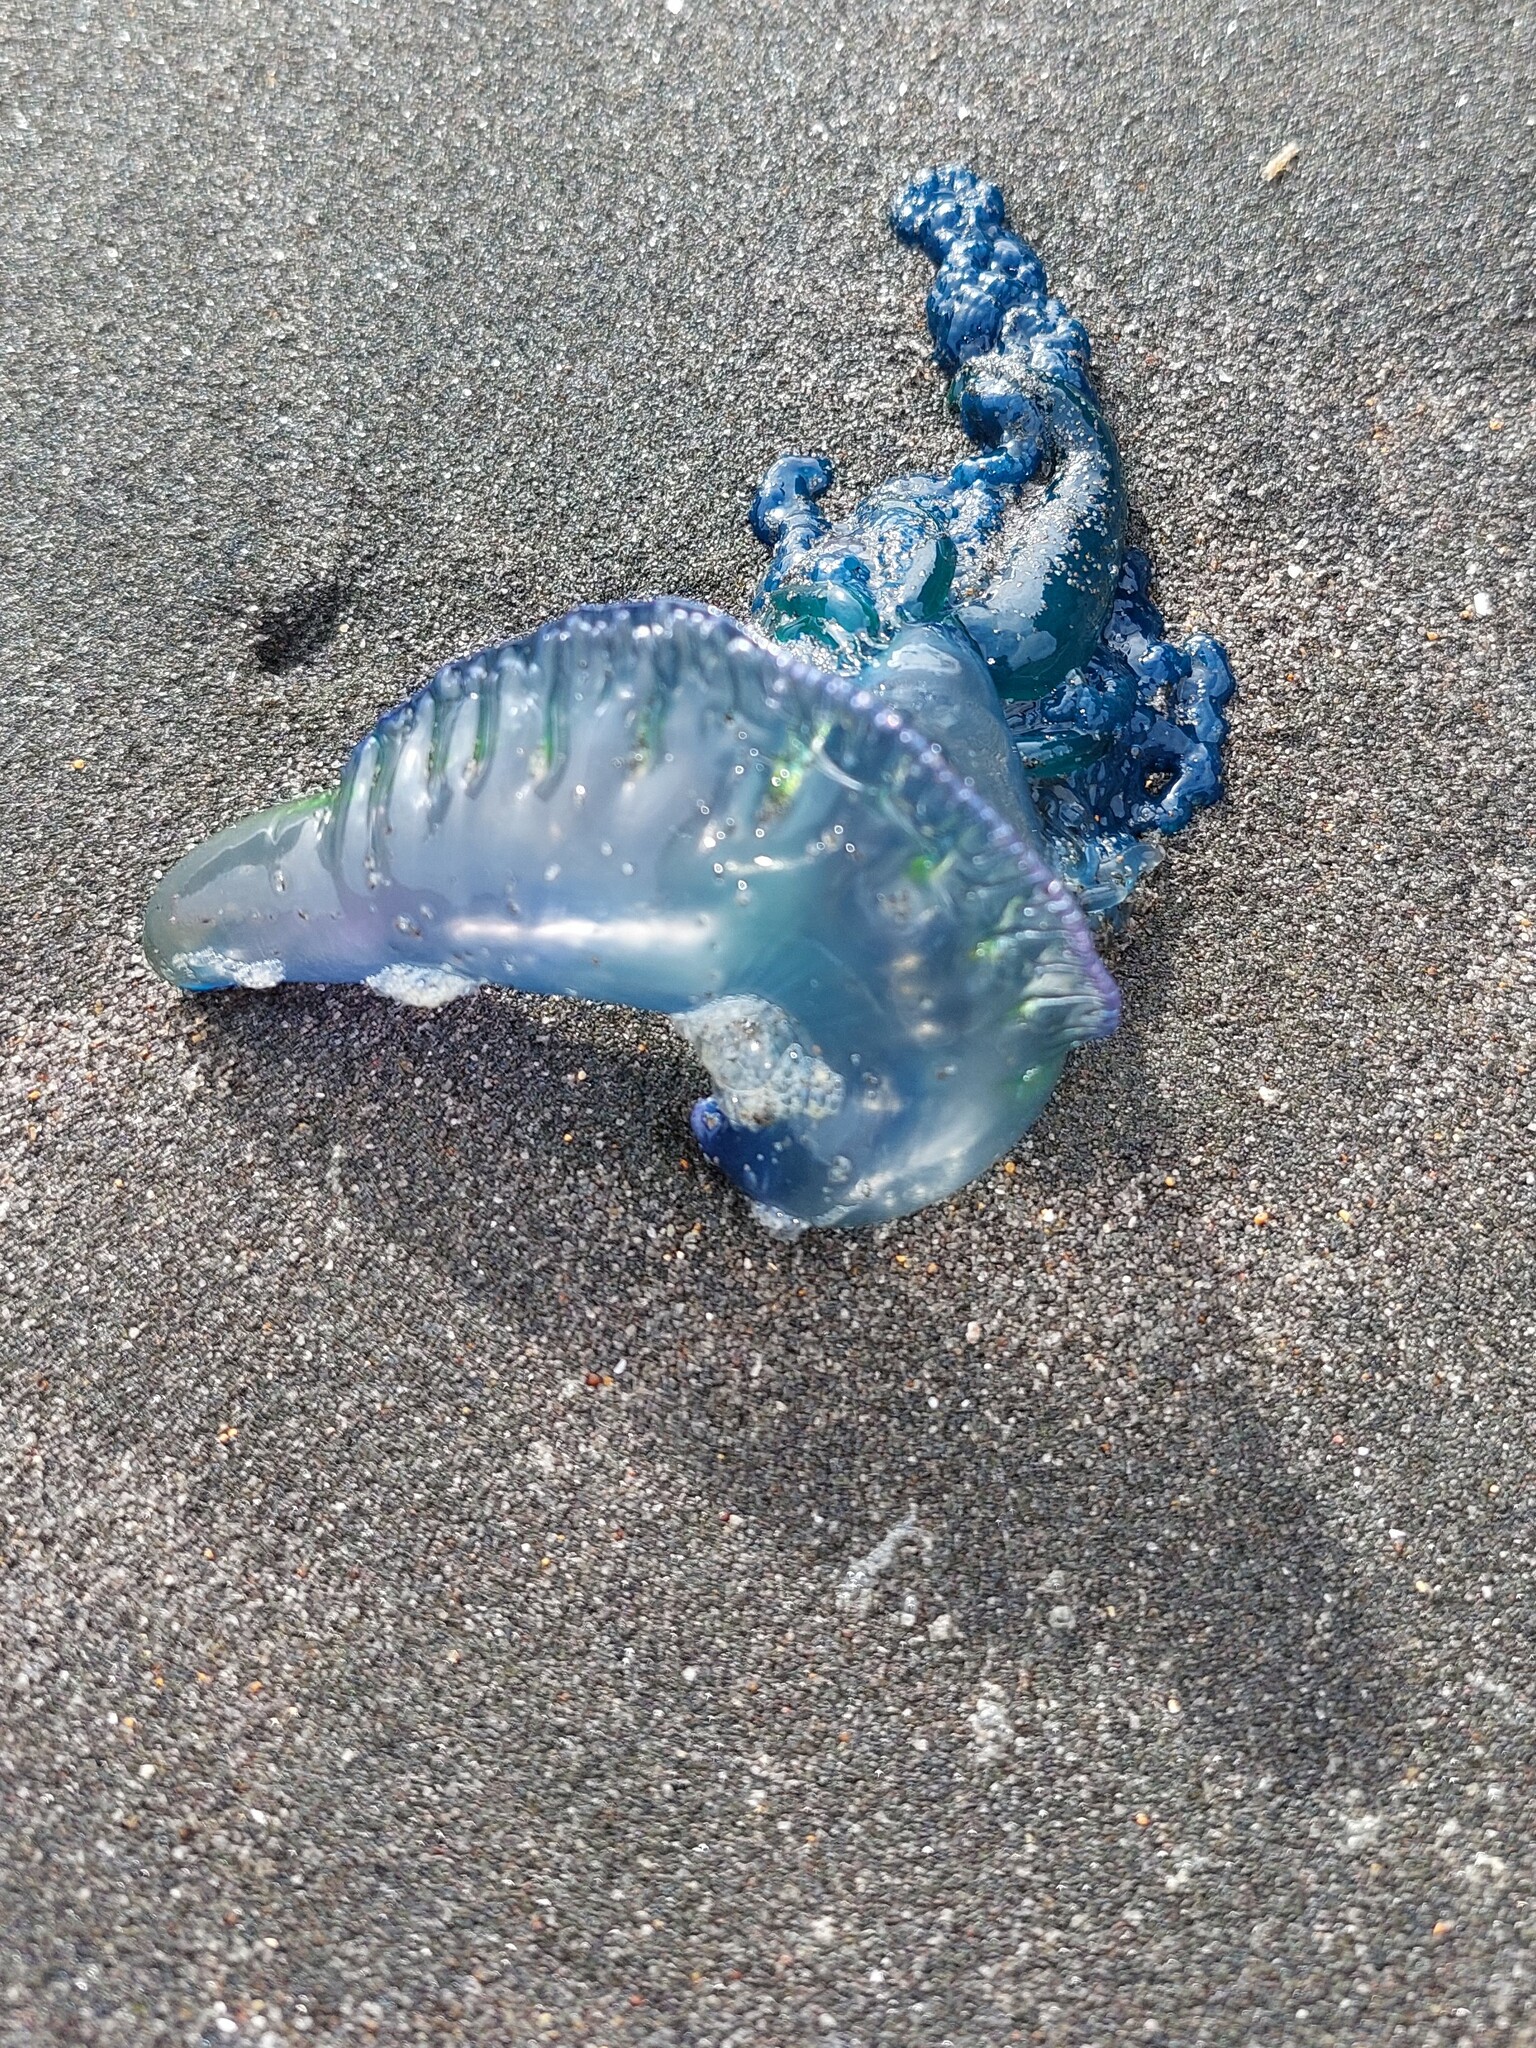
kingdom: Animalia
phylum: Cnidaria
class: Hydrozoa
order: Siphonophorae
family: Physaliidae
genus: Physalia
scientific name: Physalia physalis
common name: Portuguese man-of-war
